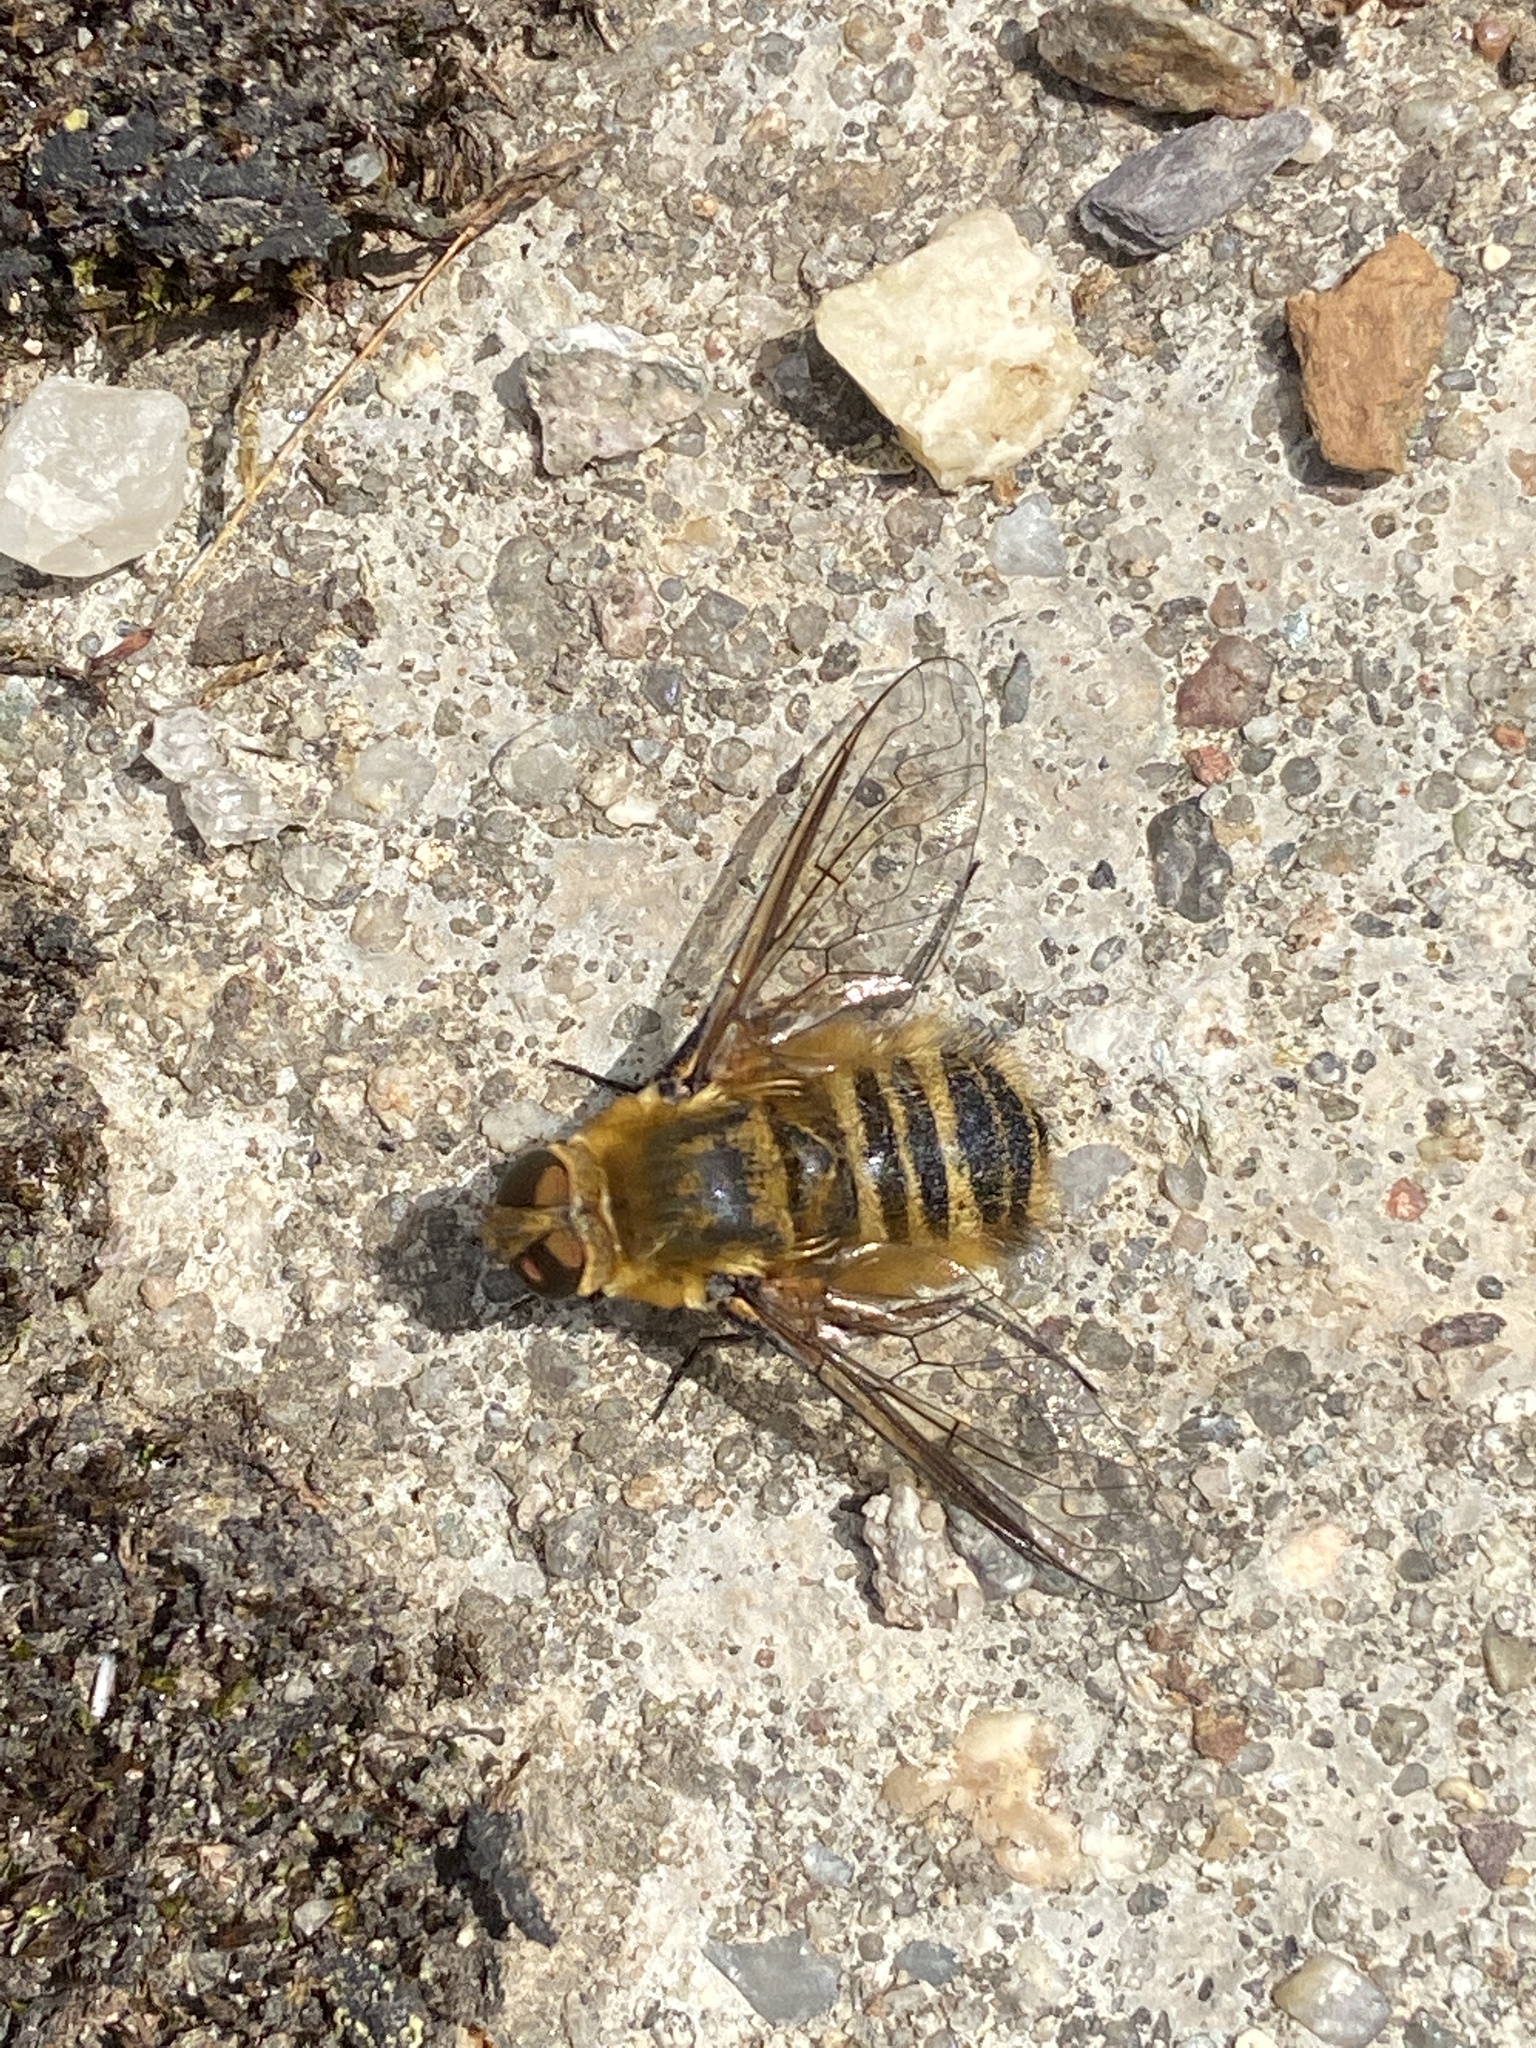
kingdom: Animalia
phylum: Arthropoda
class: Insecta
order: Diptera
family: Bombyliidae
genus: Villa
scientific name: Villa hottentotta
